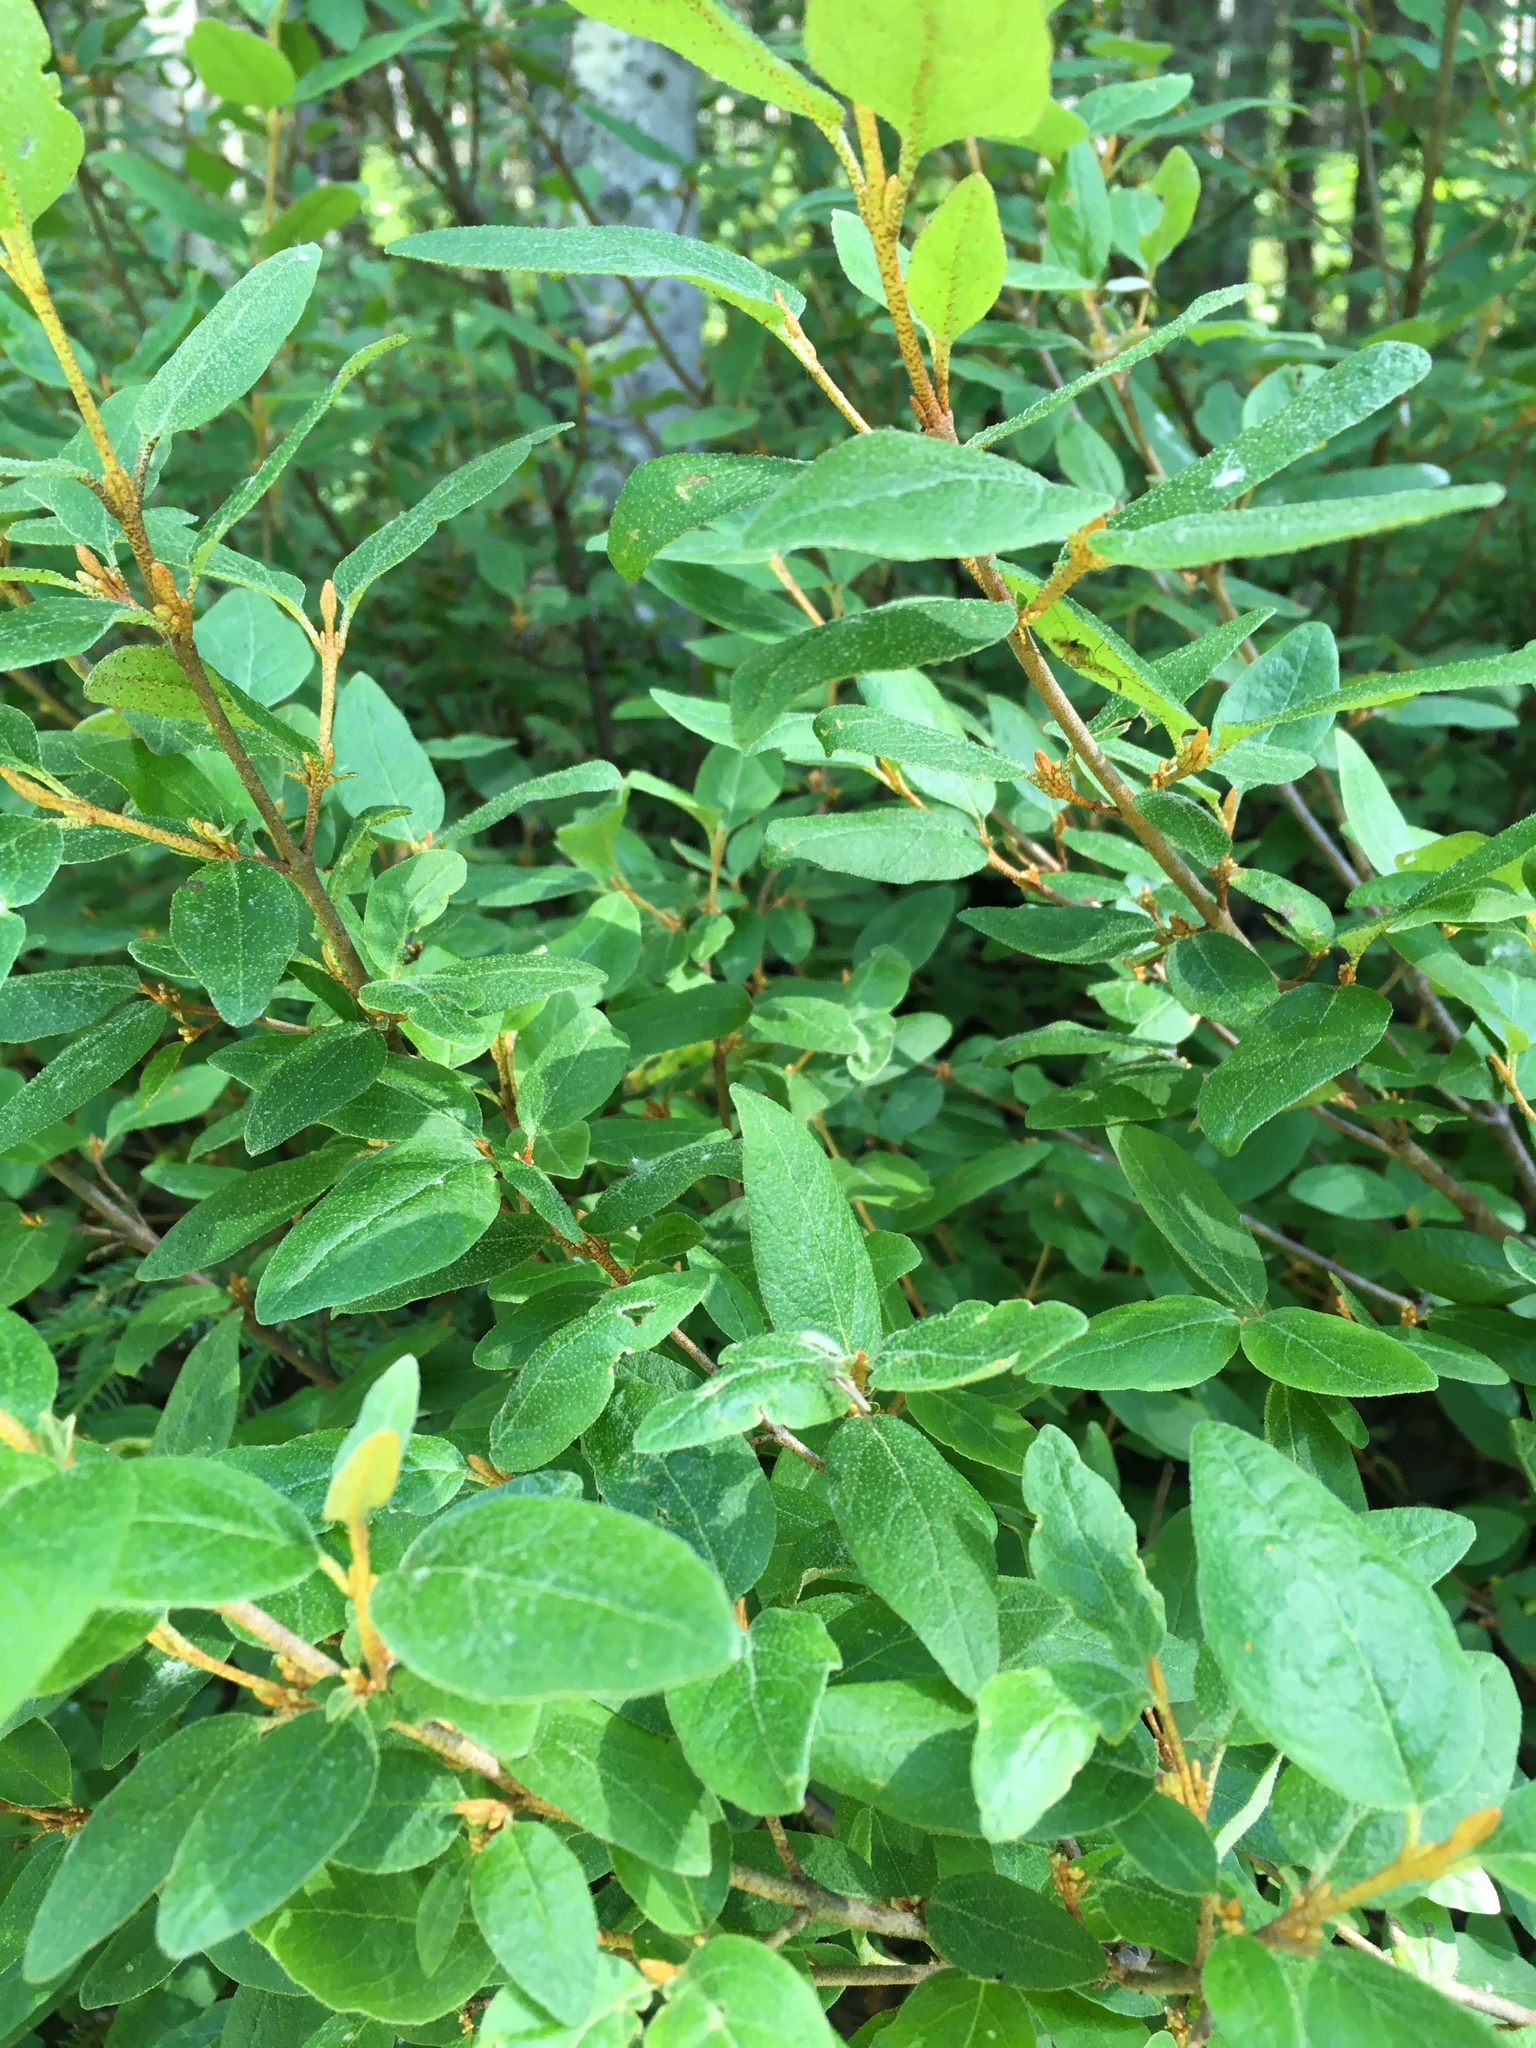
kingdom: Plantae
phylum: Tracheophyta
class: Magnoliopsida
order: Rosales
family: Elaeagnaceae
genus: Shepherdia
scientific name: Shepherdia canadensis
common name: Soapberry
